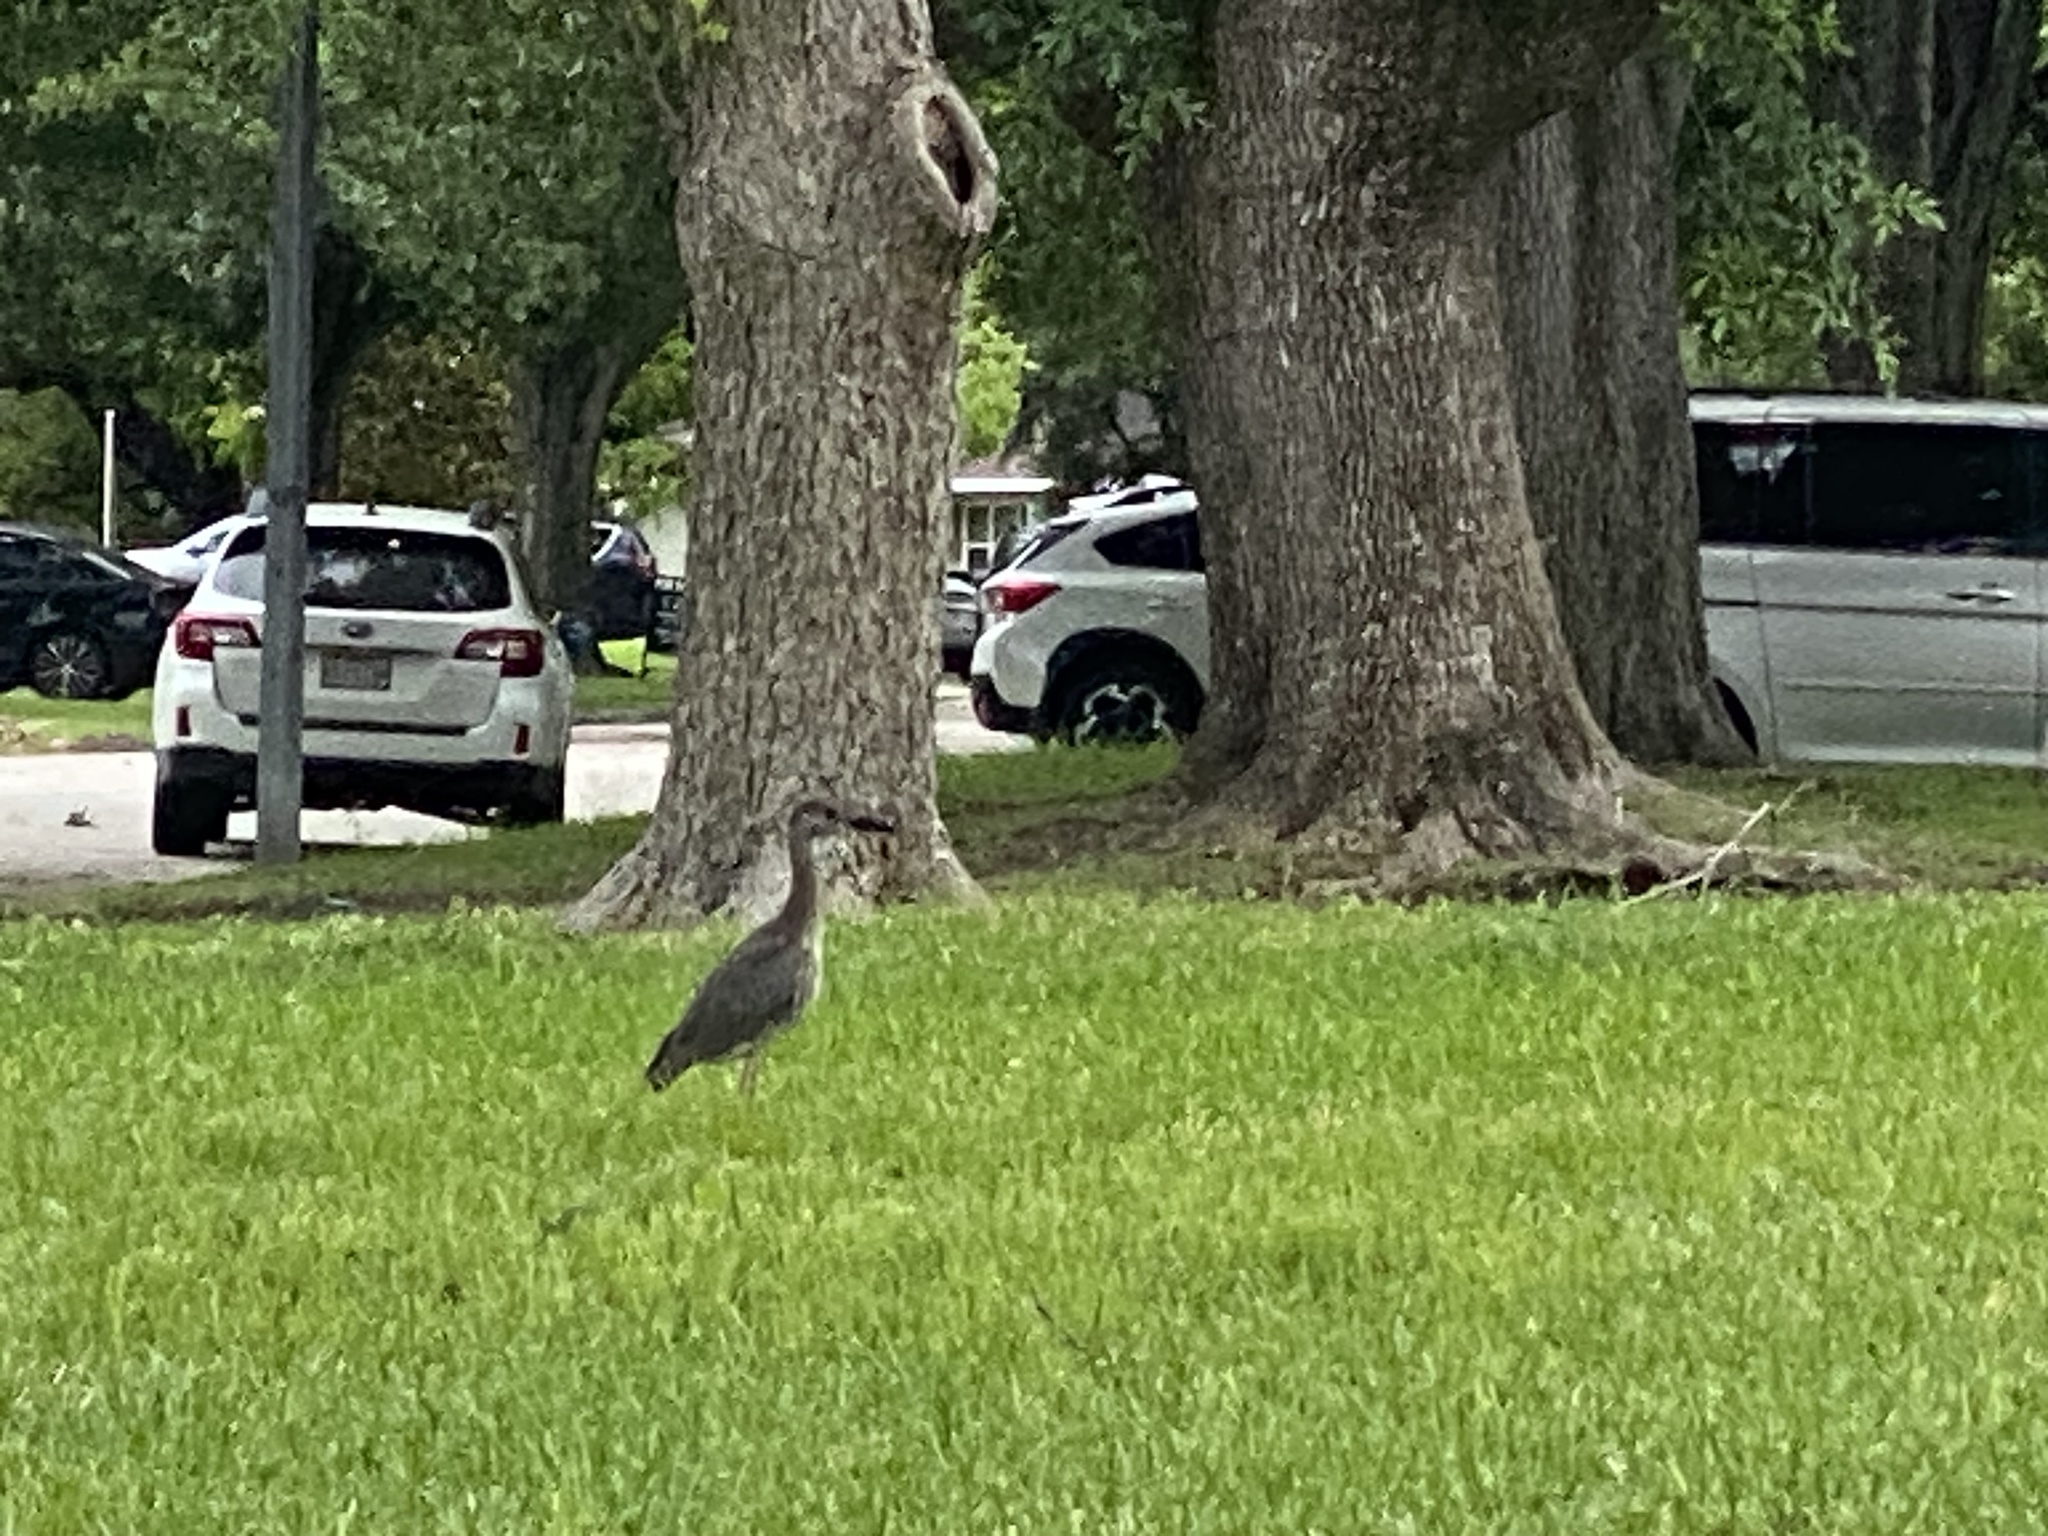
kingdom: Animalia
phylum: Chordata
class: Aves
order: Pelecaniformes
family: Ardeidae
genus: Nyctanassa
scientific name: Nyctanassa violacea
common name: Yellow-crowned night heron
